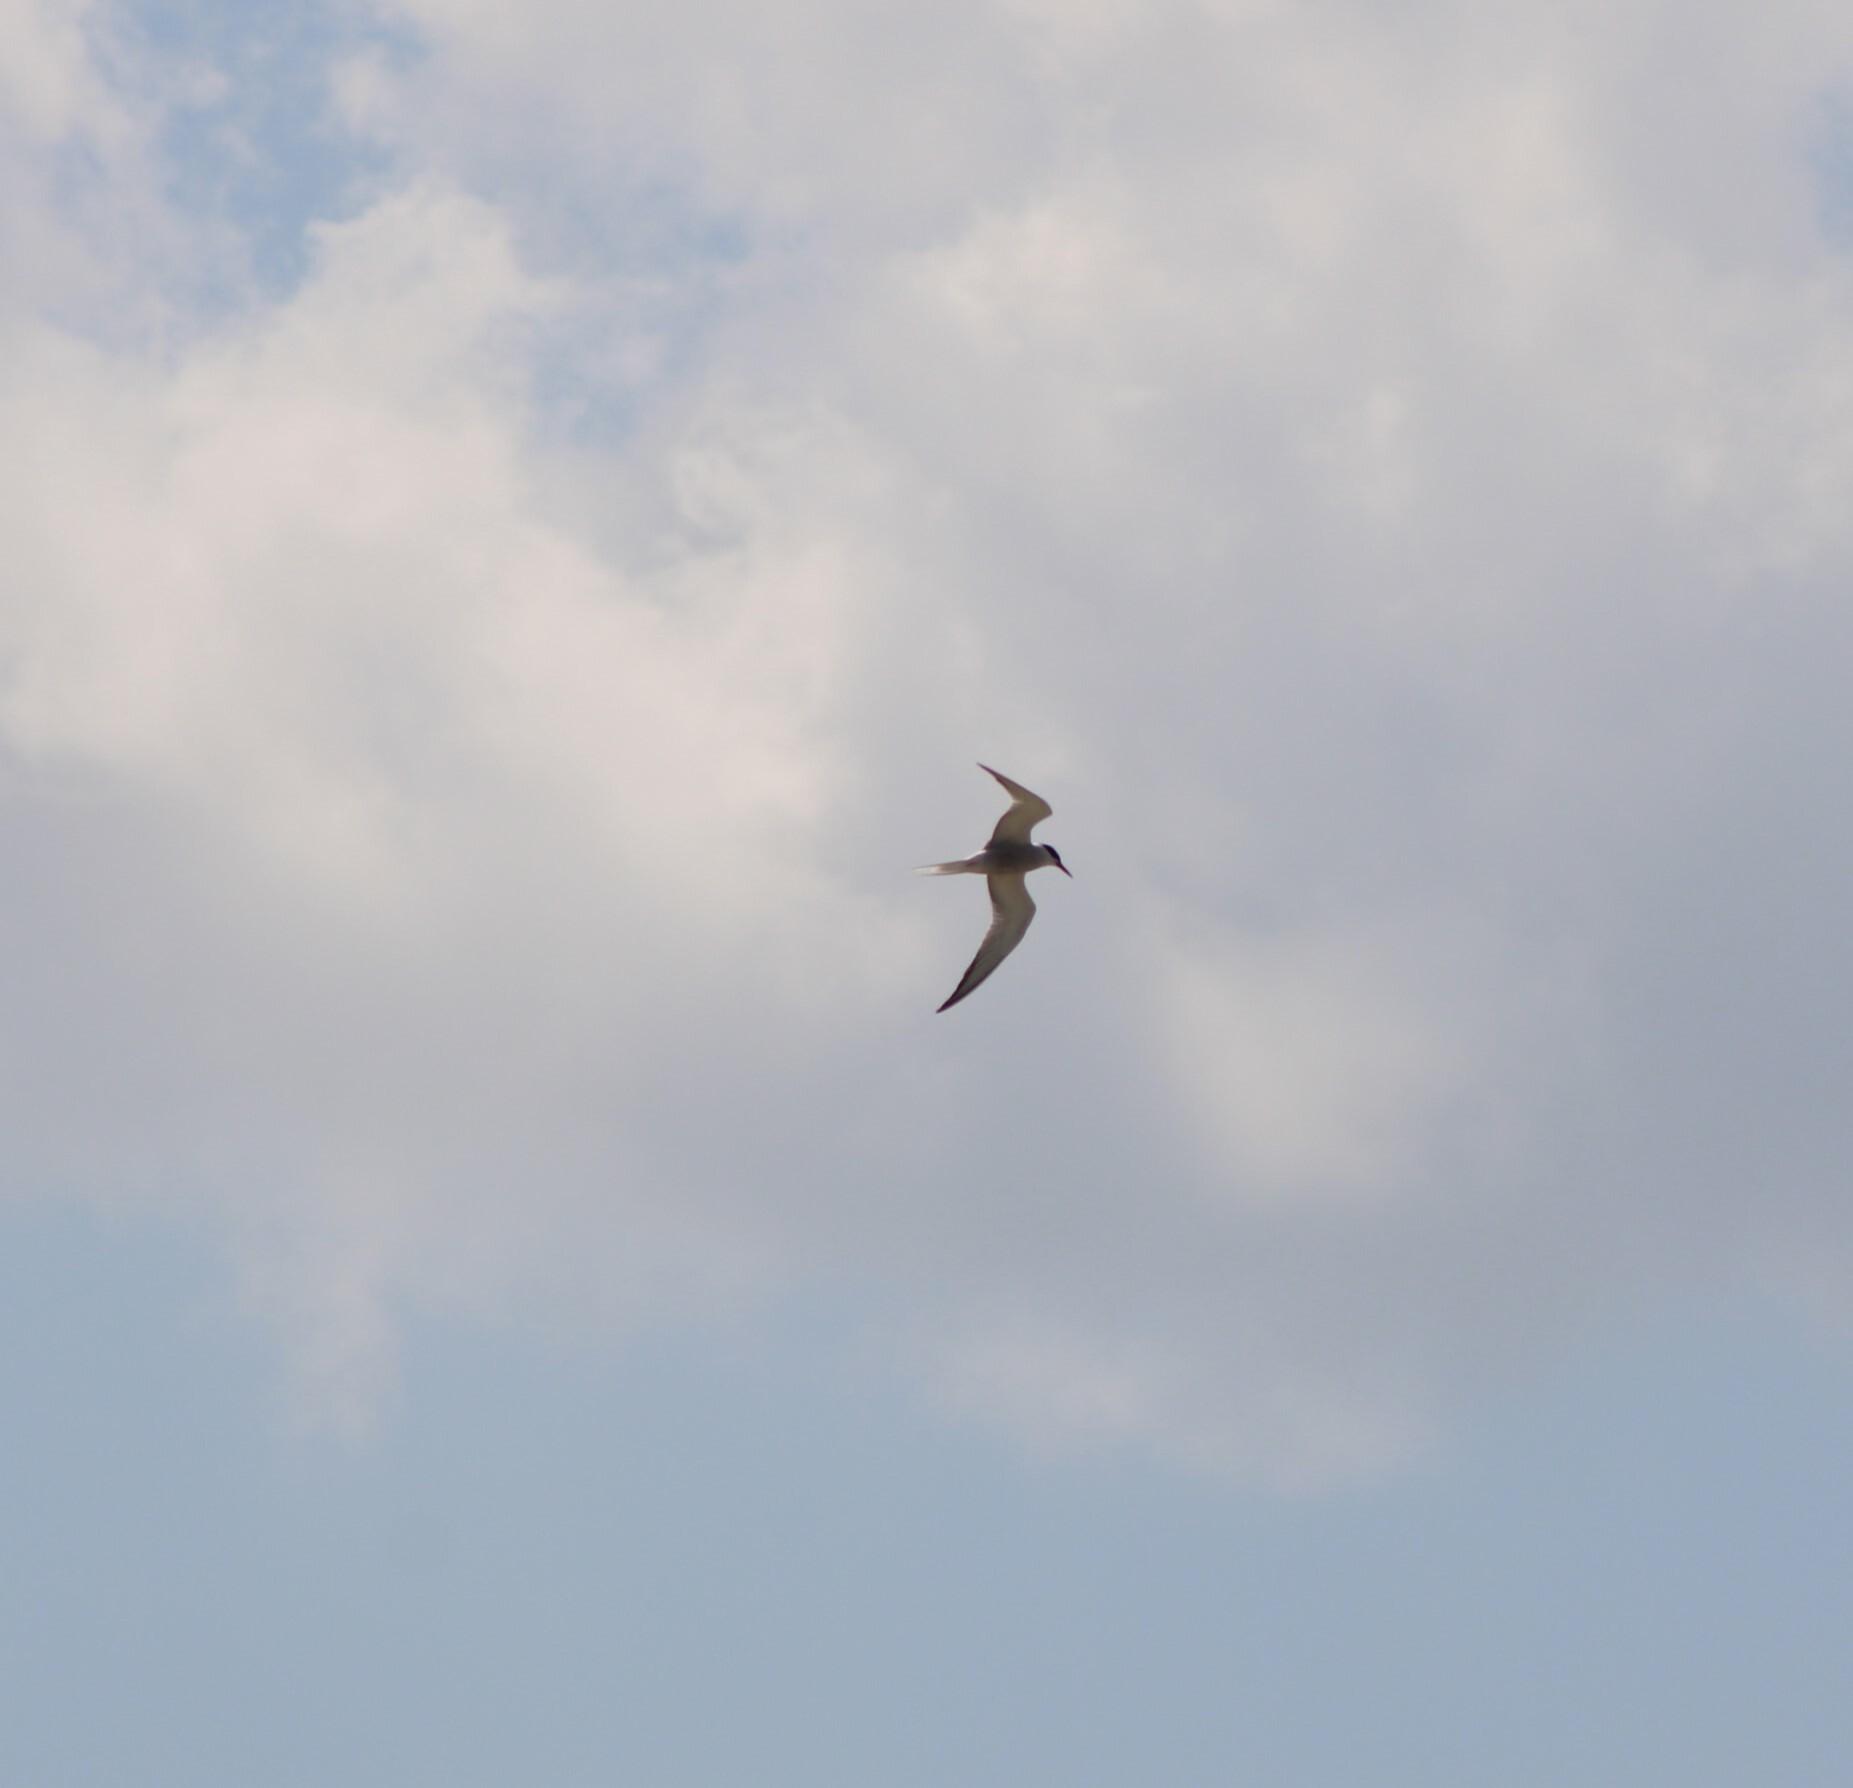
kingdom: Animalia
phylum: Chordata
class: Aves
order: Charadriiformes
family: Laridae
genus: Sterna
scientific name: Sterna hirundo
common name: Common tern
